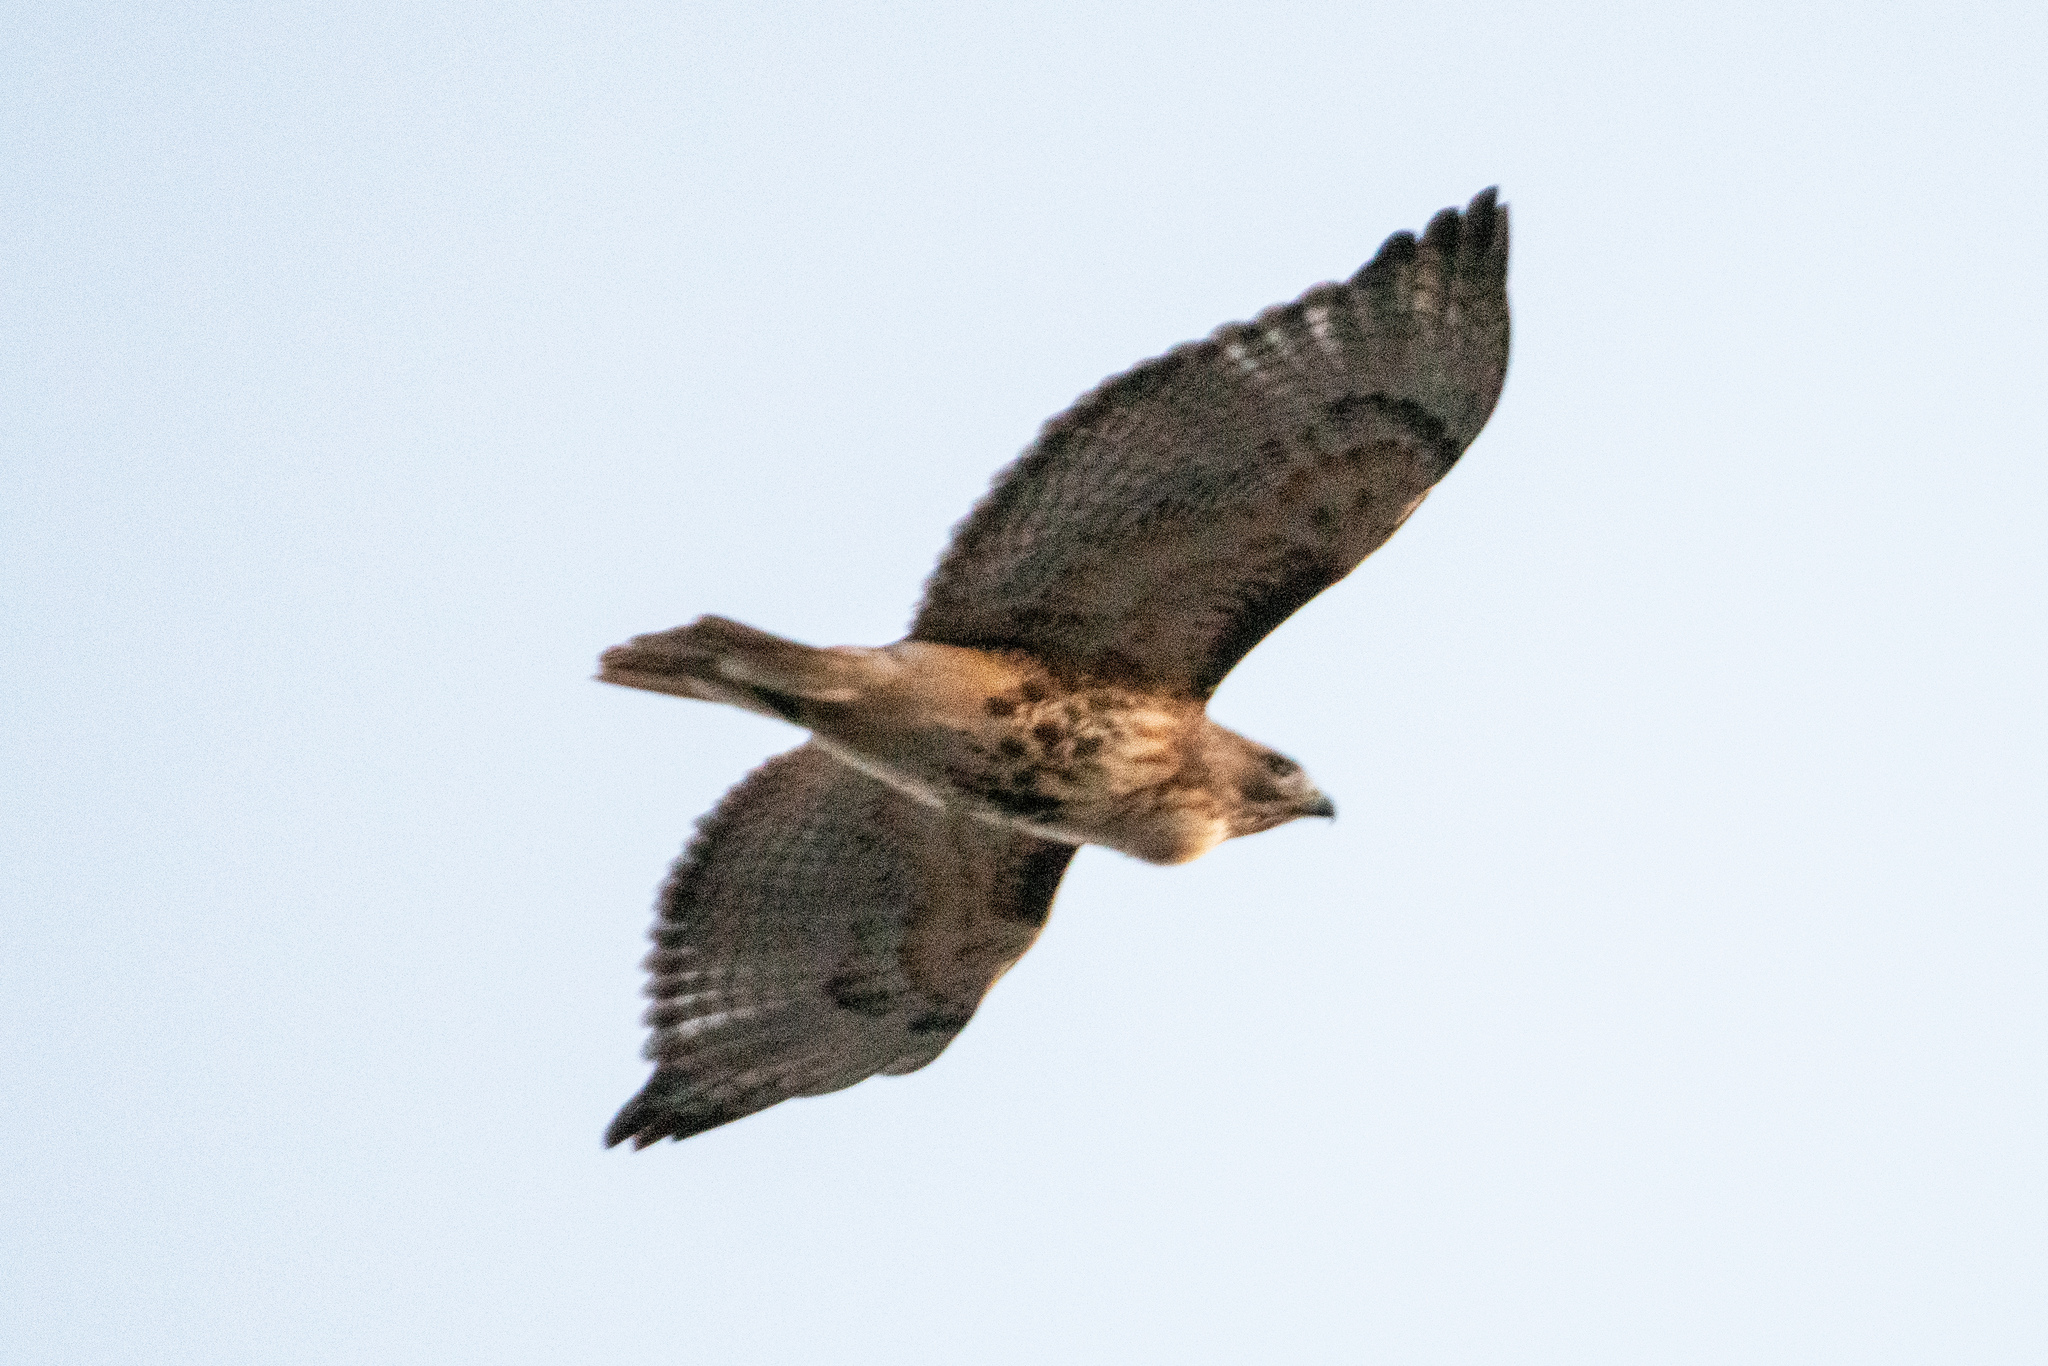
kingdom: Animalia
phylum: Chordata
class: Aves
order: Accipitriformes
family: Accipitridae
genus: Buteo
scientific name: Buteo jamaicensis
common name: Red-tailed hawk
